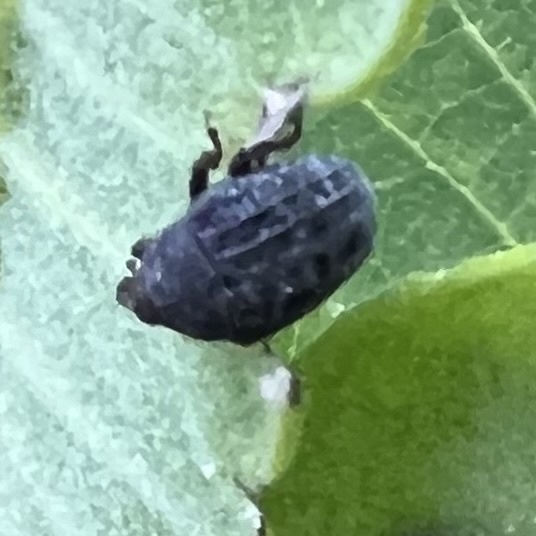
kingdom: Animalia
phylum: Arthropoda
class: Insecta
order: Coleoptera
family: Curculionidae
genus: Rhyssomatus
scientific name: Rhyssomatus lineaticollis
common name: Milkweed stem weevil
